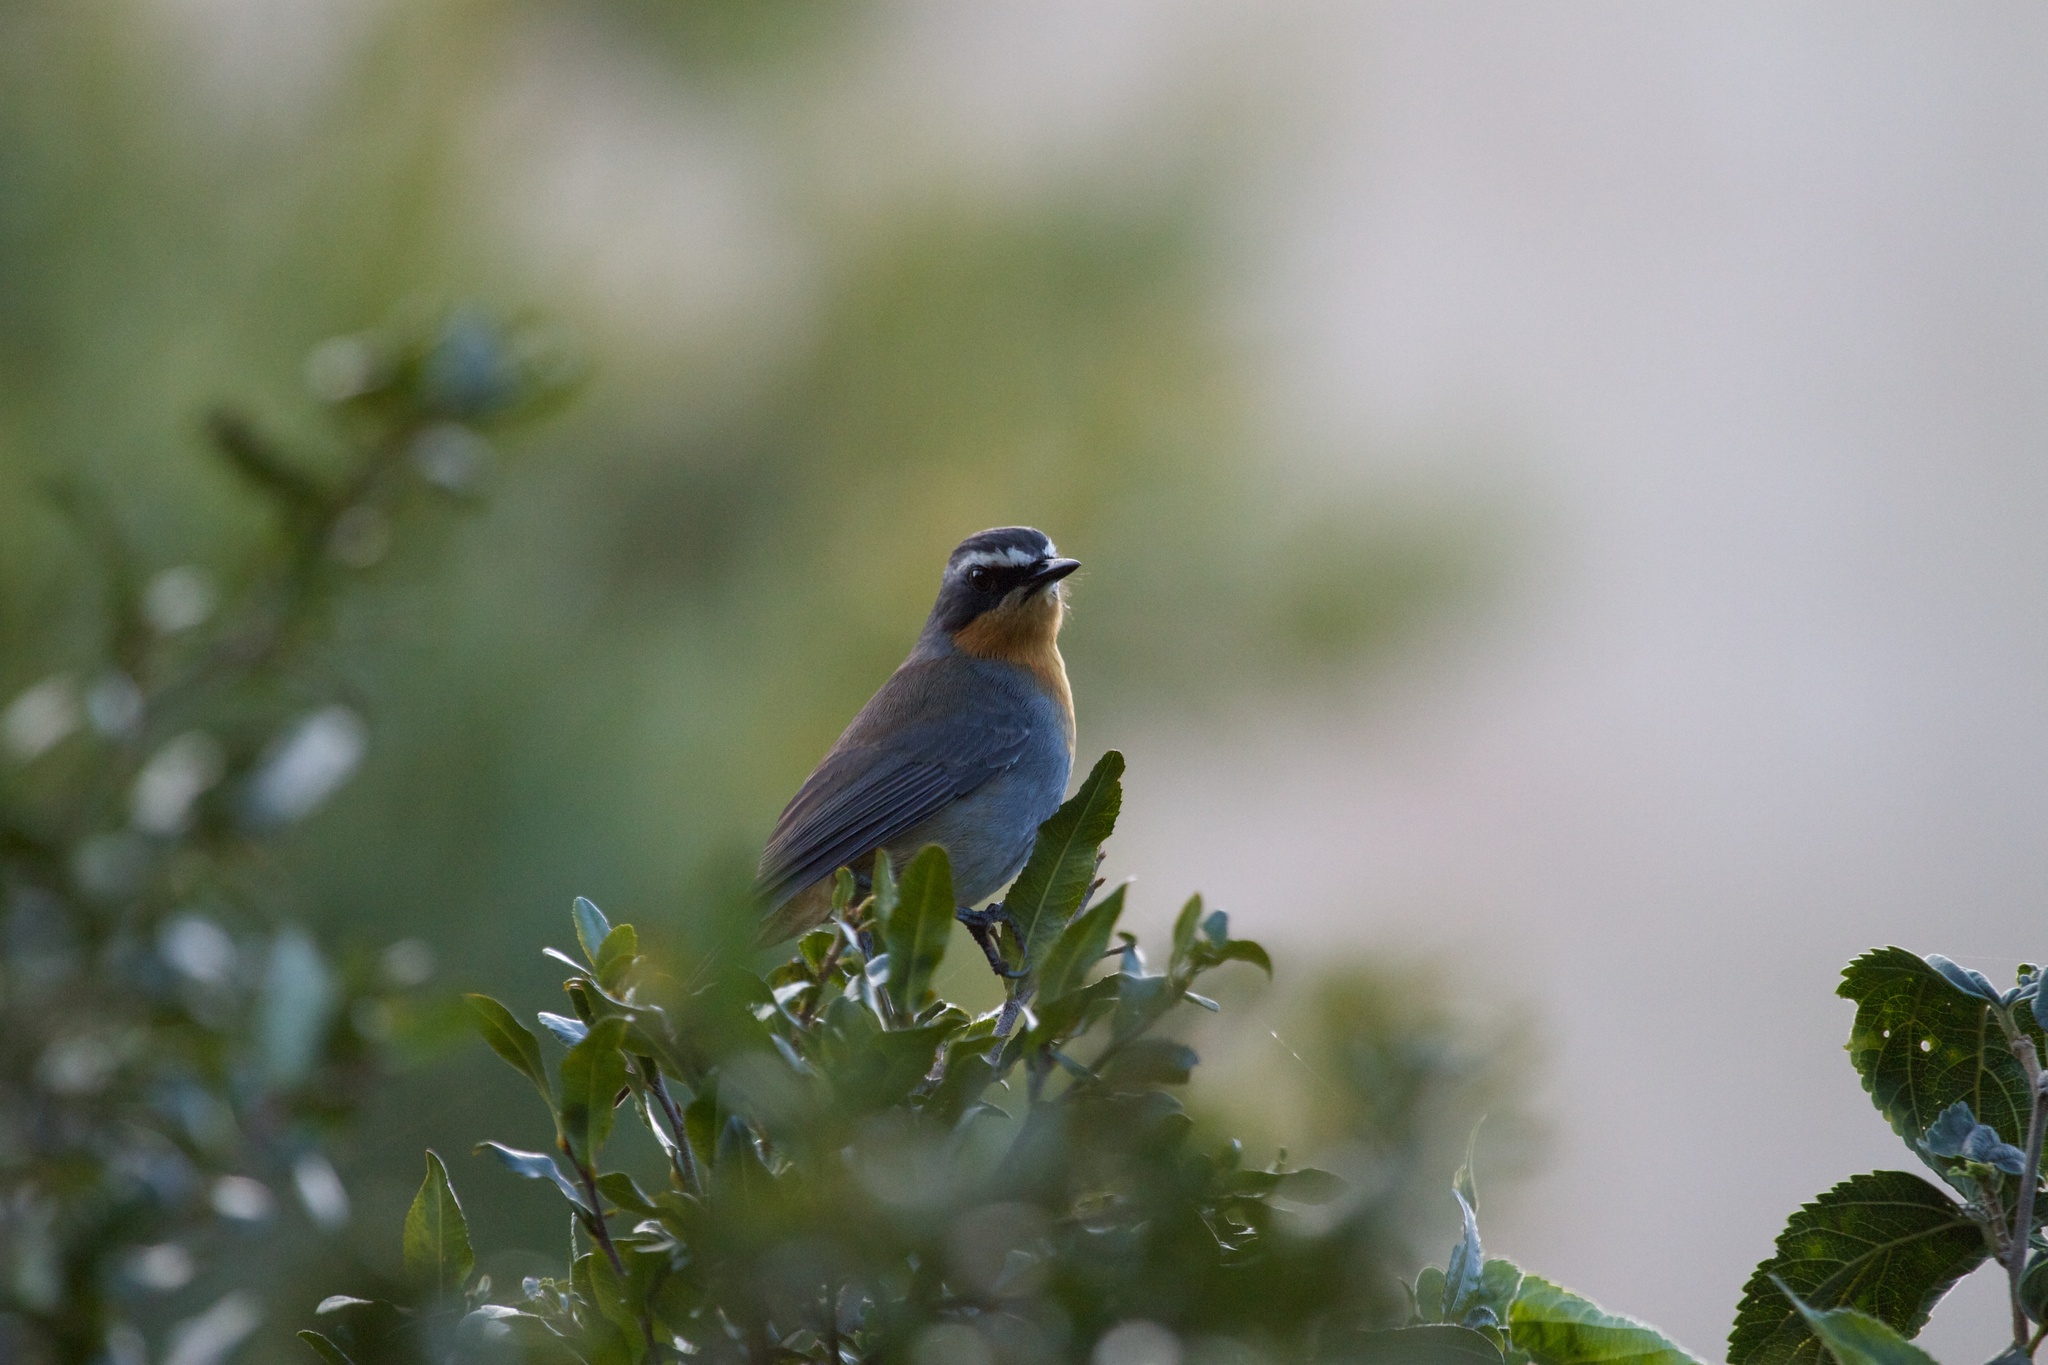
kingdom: Animalia
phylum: Chordata
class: Aves
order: Passeriformes
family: Muscicapidae
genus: Cossypha
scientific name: Cossypha caffra
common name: Cape robin-chat
